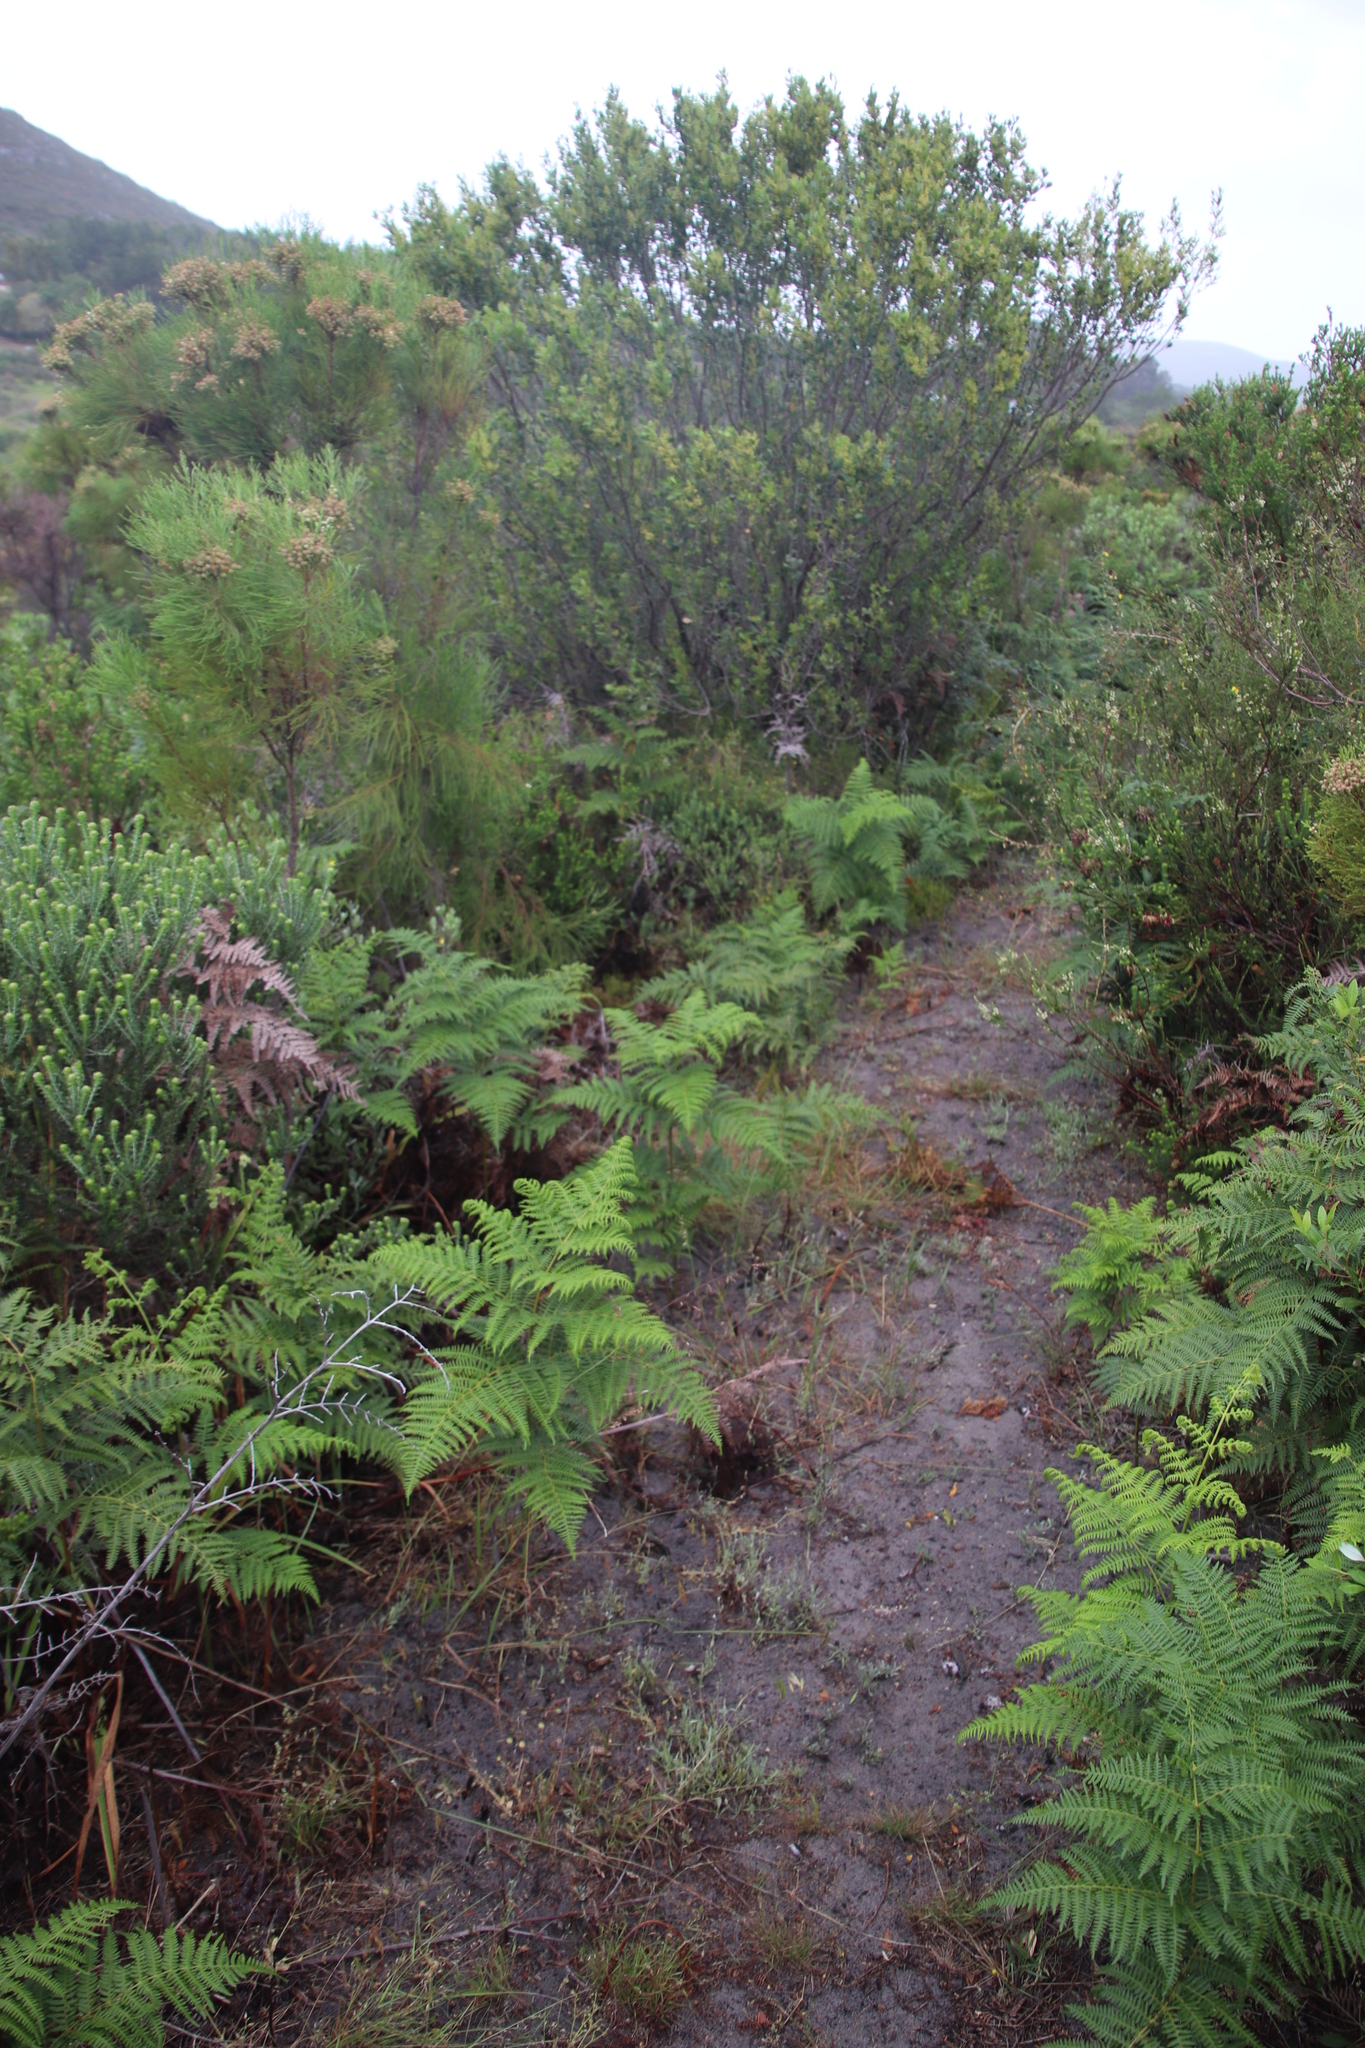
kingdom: Plantae
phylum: Tracheophyta
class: Polypodiopsida
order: Polypodiales
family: Dennstaedtiaceae
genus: Pteridium
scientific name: Pteridium aquilinum
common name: Bracken
